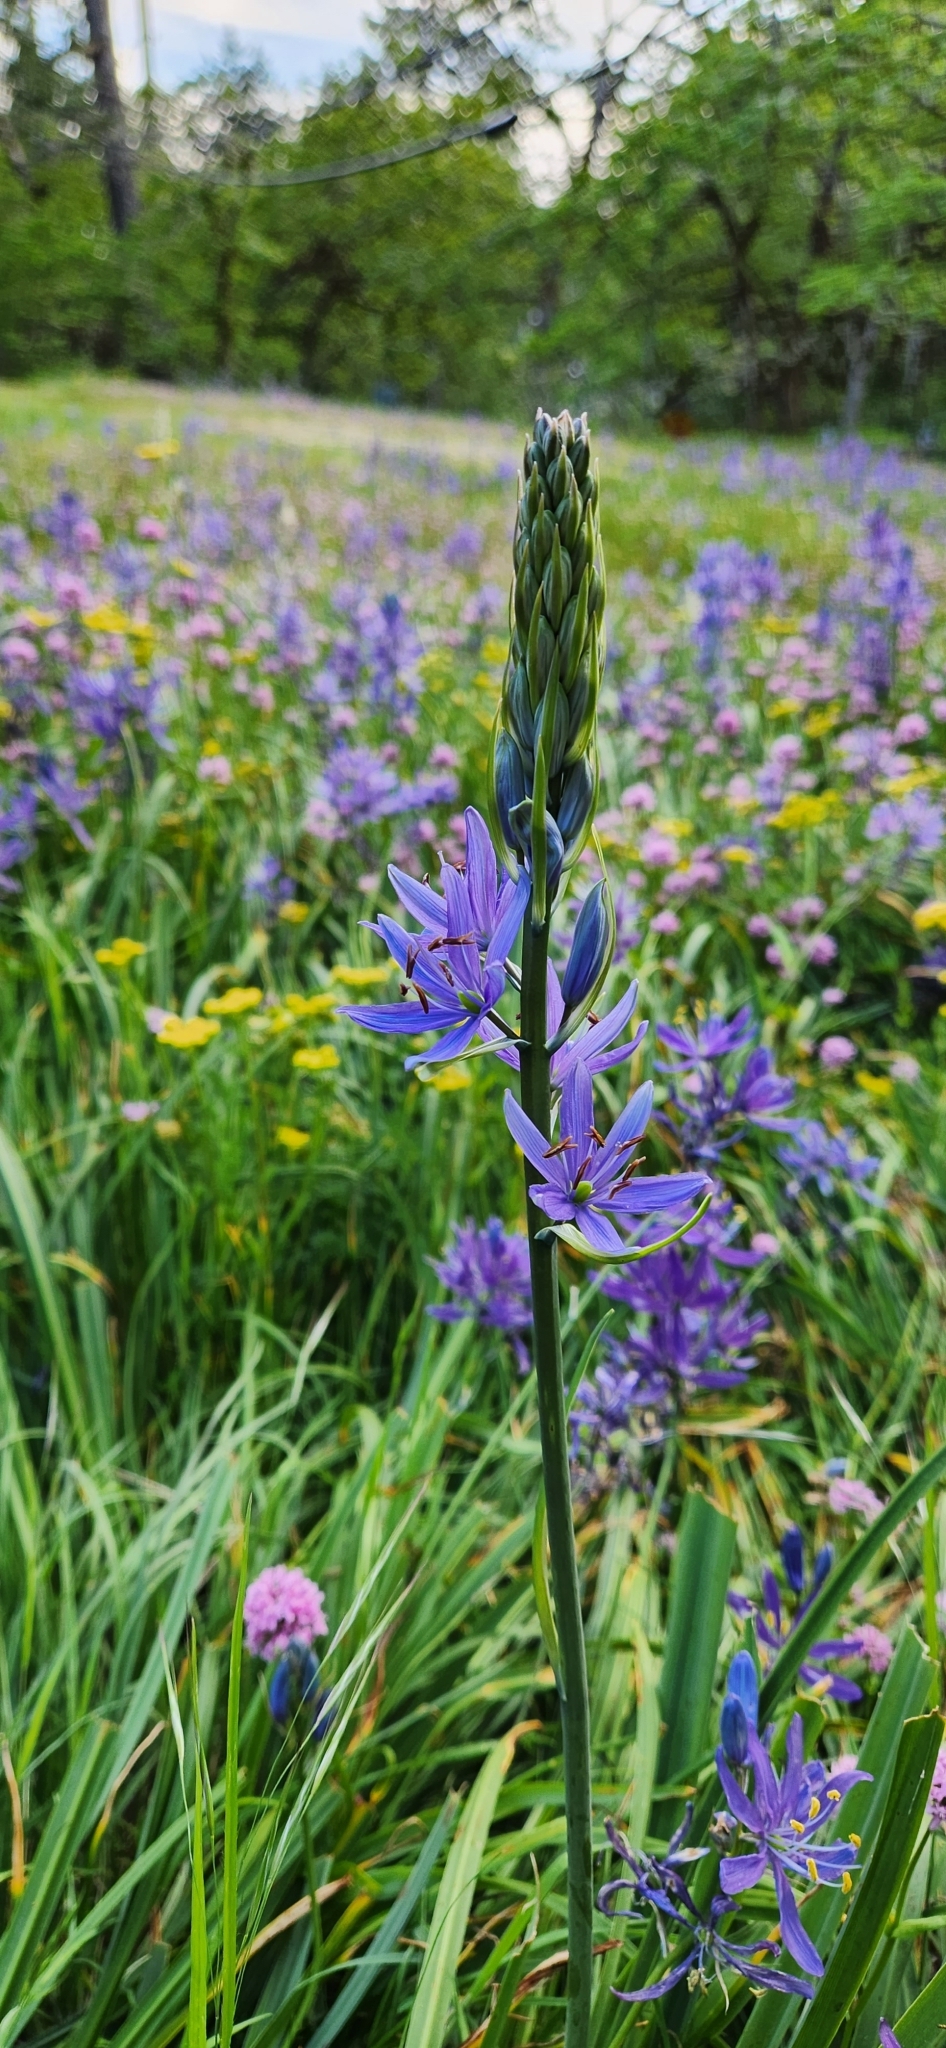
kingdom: Plantae
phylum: Tracheophyta
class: Liliopsida
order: Asparagales
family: Asparagaceae
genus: Camassia
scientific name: Camassia leichtlinii
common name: Leichtlin's camas
